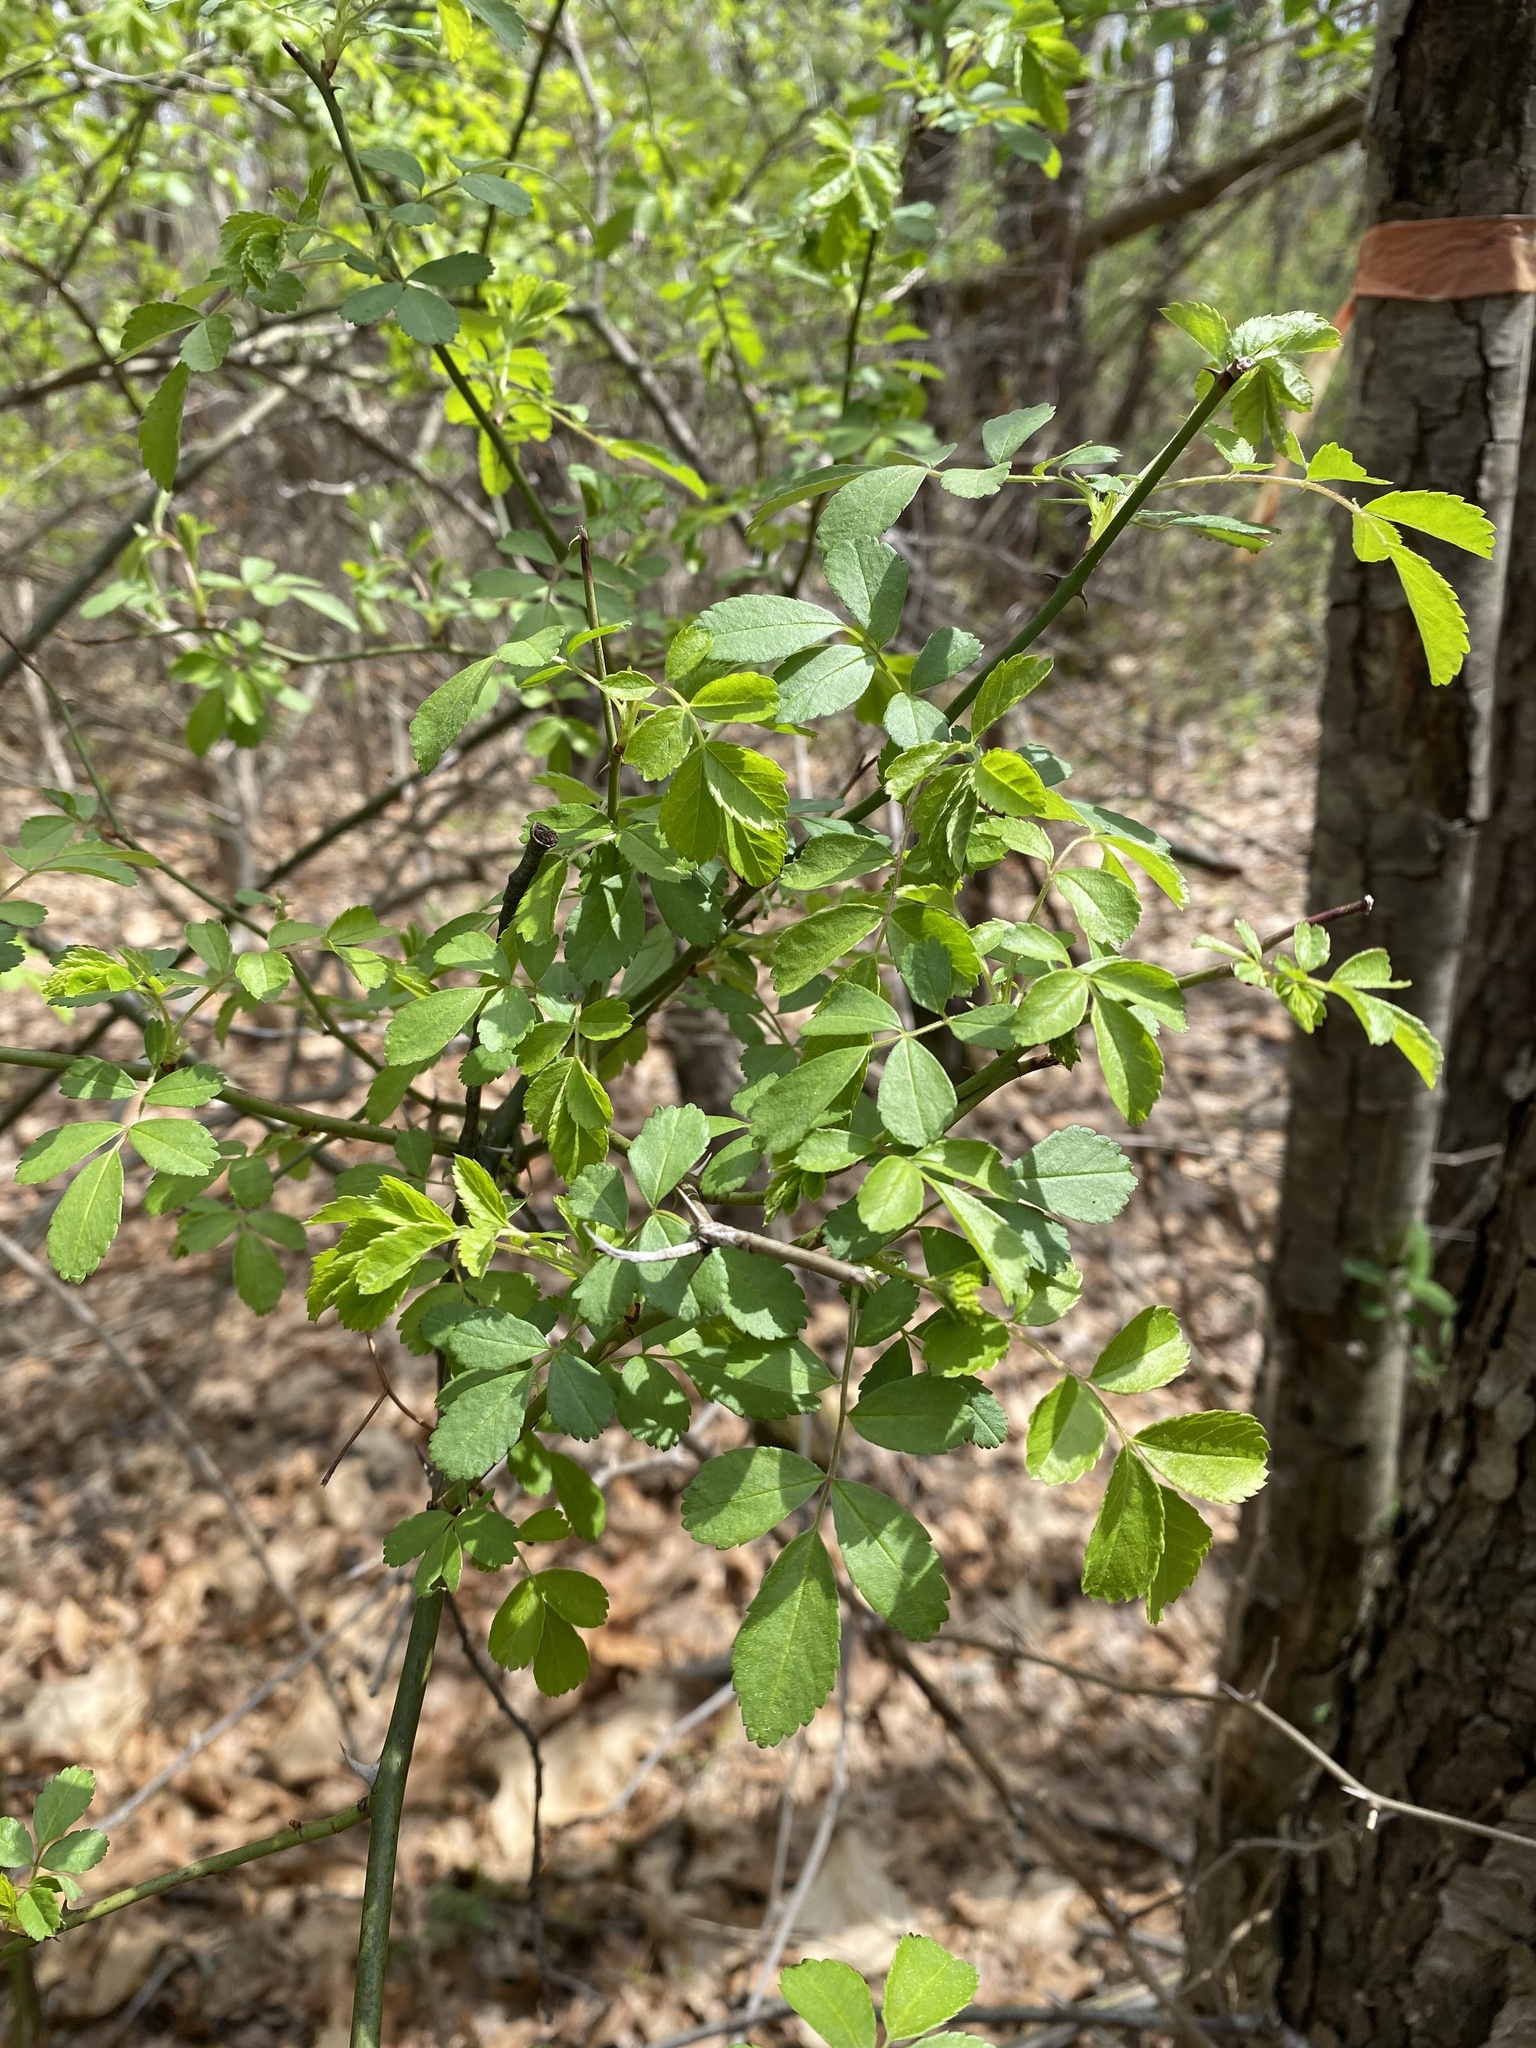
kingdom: Plantae
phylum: Tracheophyta
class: Magnoliopsida
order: Rosales
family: Rosaceae
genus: Rosa
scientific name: Rosa multiflora
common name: Multiflora rose
